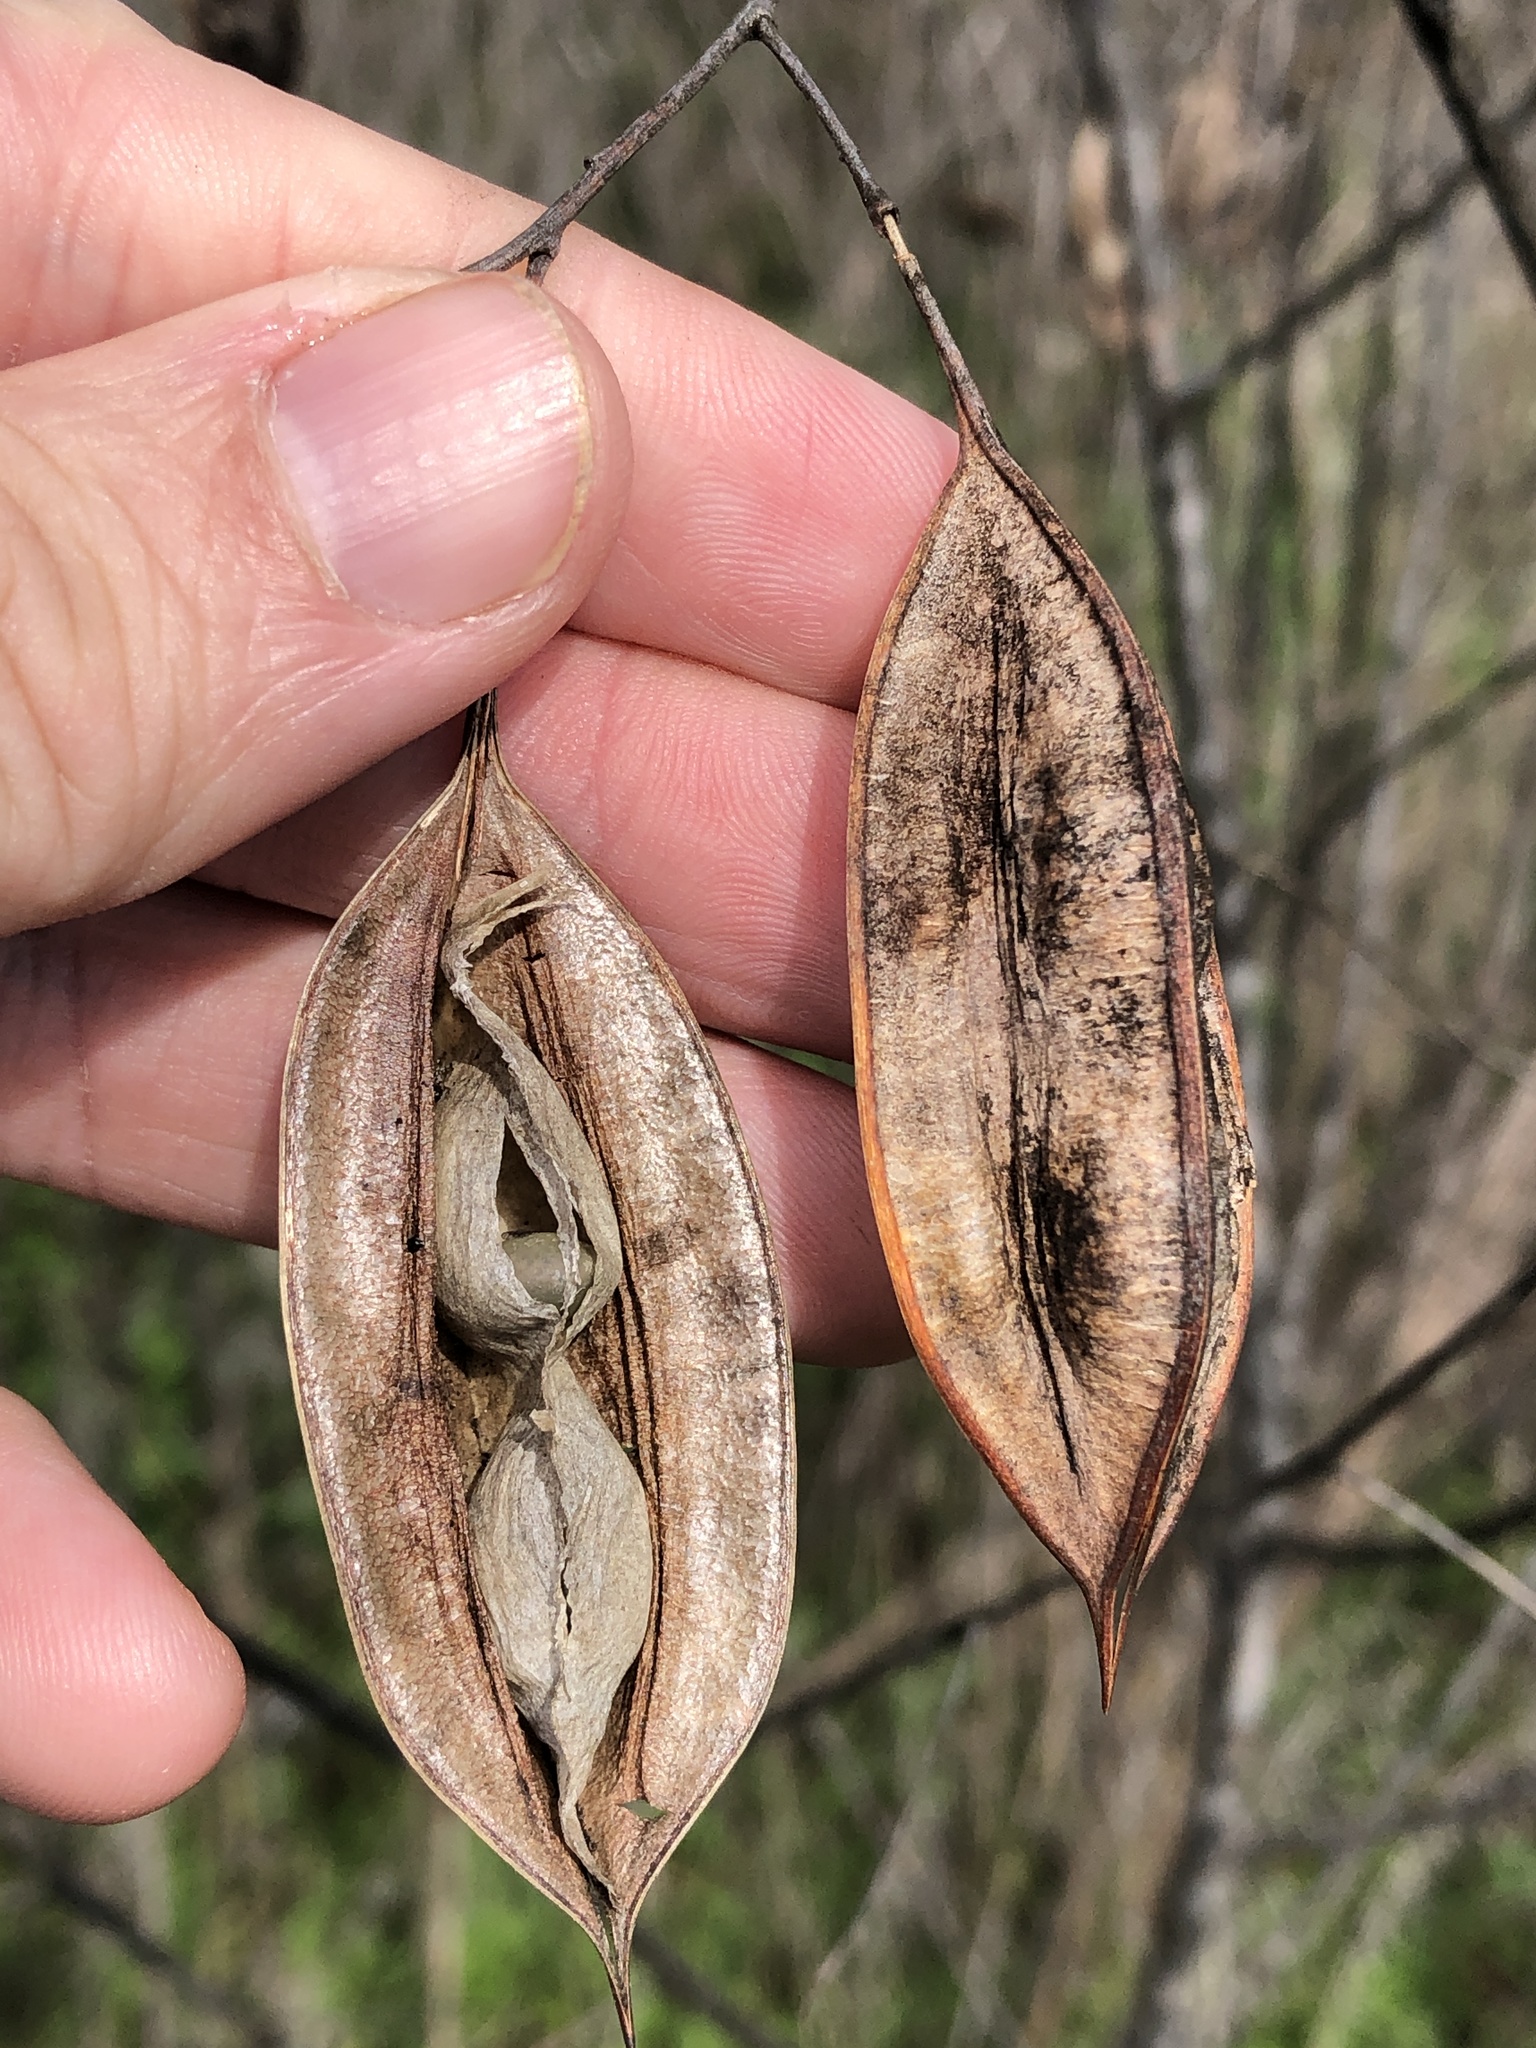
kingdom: Plantae
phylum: Tracheophyta
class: Magnoliopsida
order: Fabales
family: Fabaceae
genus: Sesbania
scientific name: Sesbania vesicaria
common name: Bagpod
